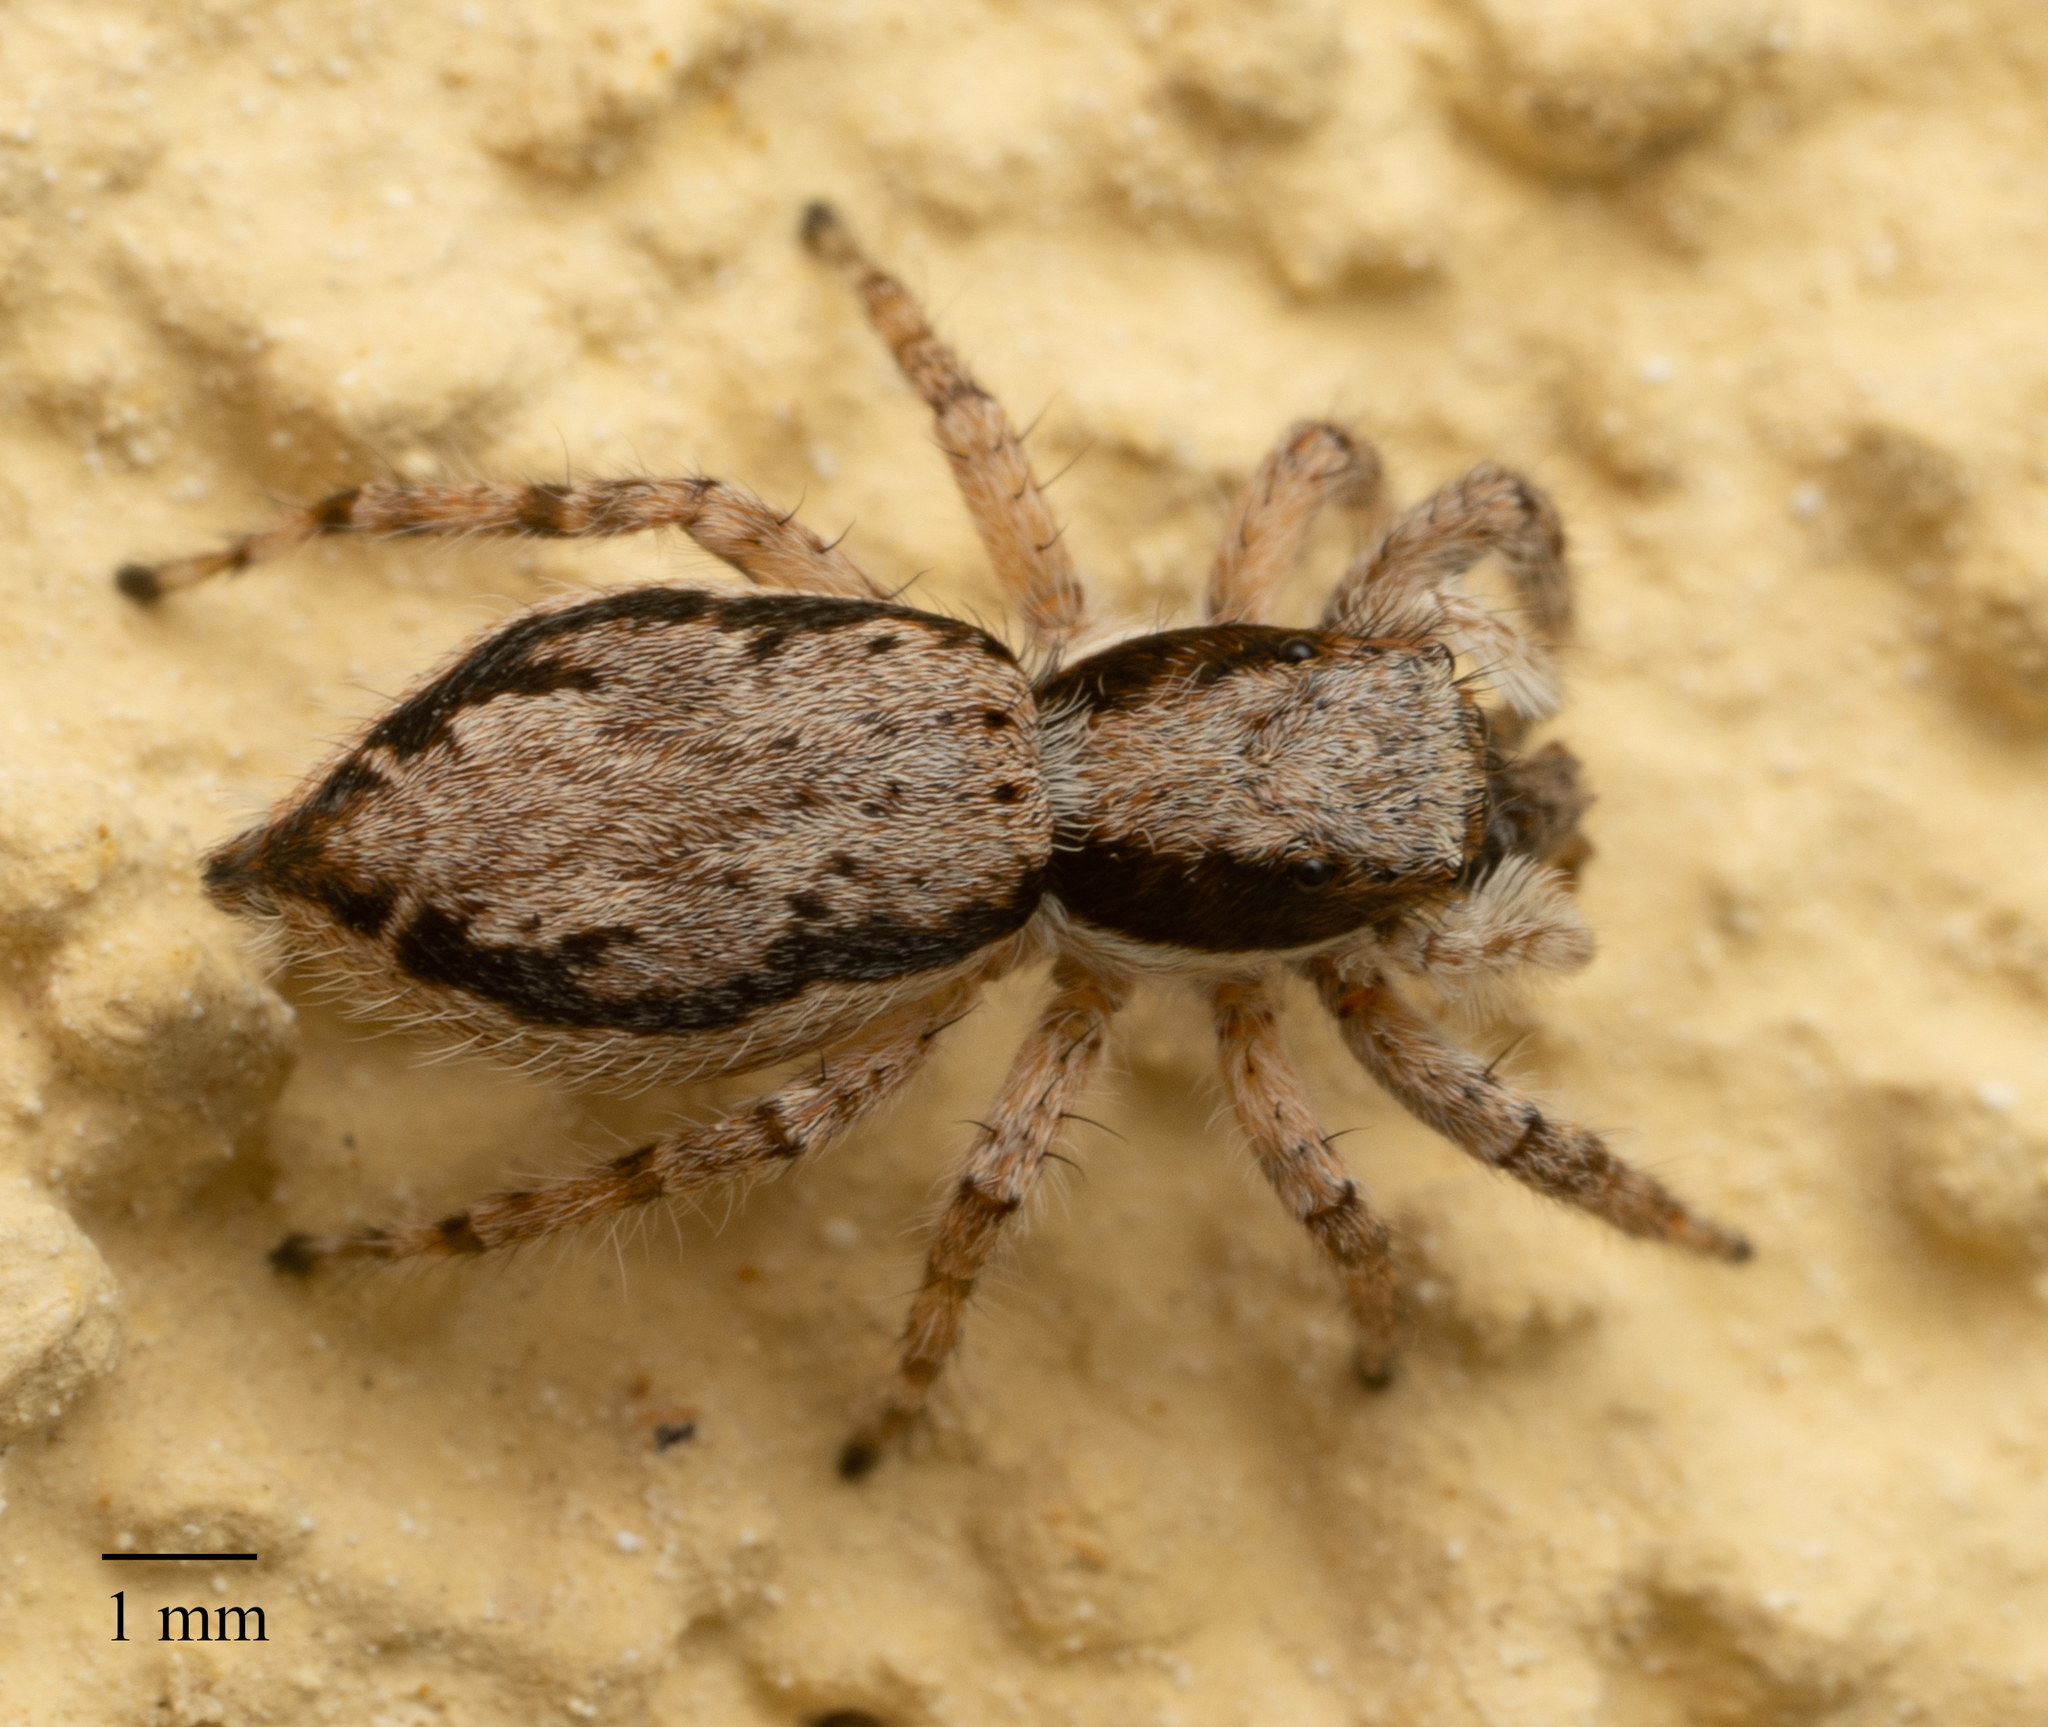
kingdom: Animalia
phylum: Arthropoda
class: Arachnida
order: Araneae
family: Salticidae
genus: Menemerus
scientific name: Menemerus bivittatus
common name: Gray wall jumper
